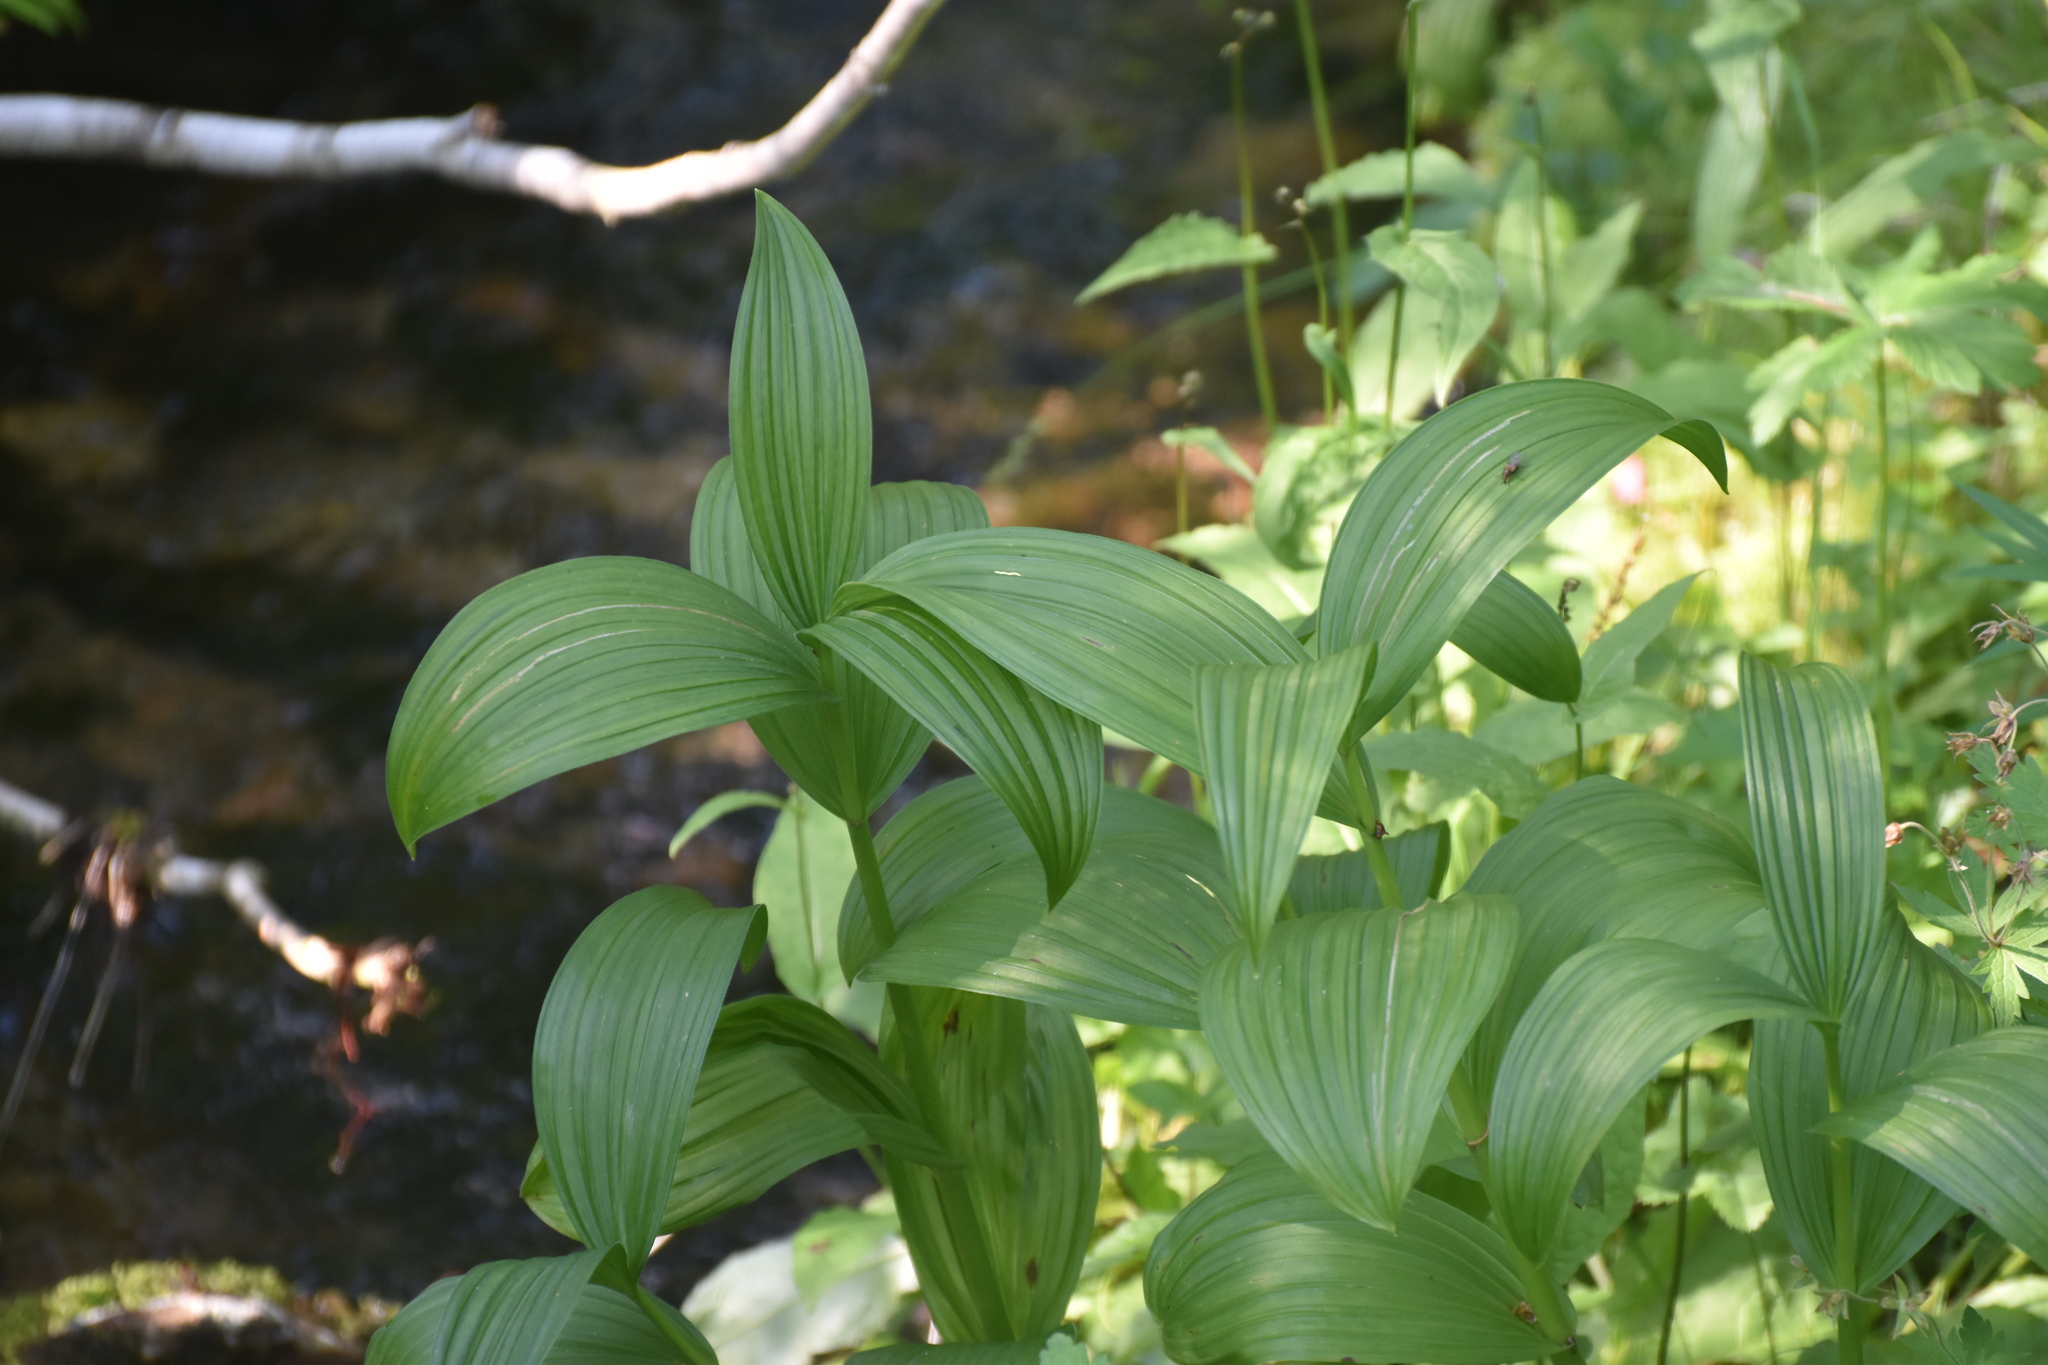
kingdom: Plantae
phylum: Tracheophyta
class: Liliopsida
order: Liliales
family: Melanthiaceae
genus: Veratrum
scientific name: Veratrum lobelianum
